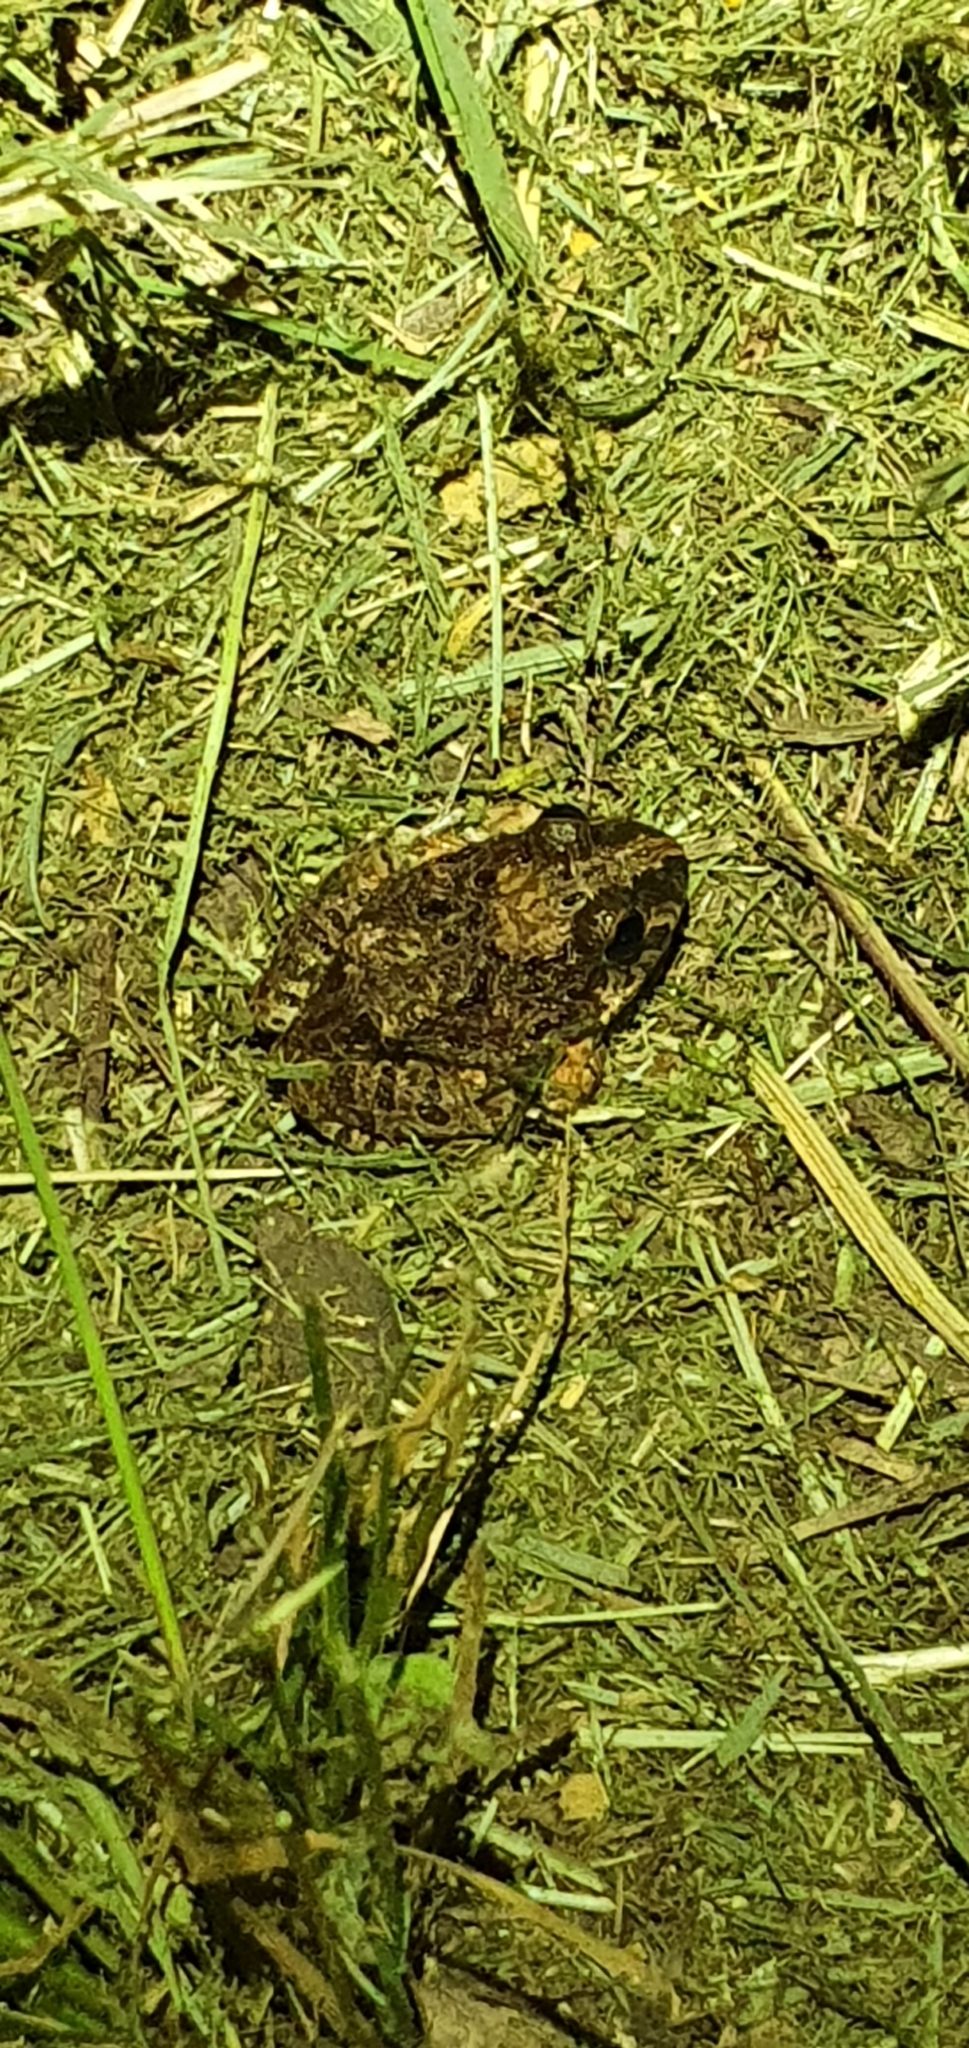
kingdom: Animalia
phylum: Chordata
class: Amphibia
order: Anura
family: Limnodynastidae
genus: Platyplectrum
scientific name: Platyplectrum ornatum
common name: Ornate burrowing frog
